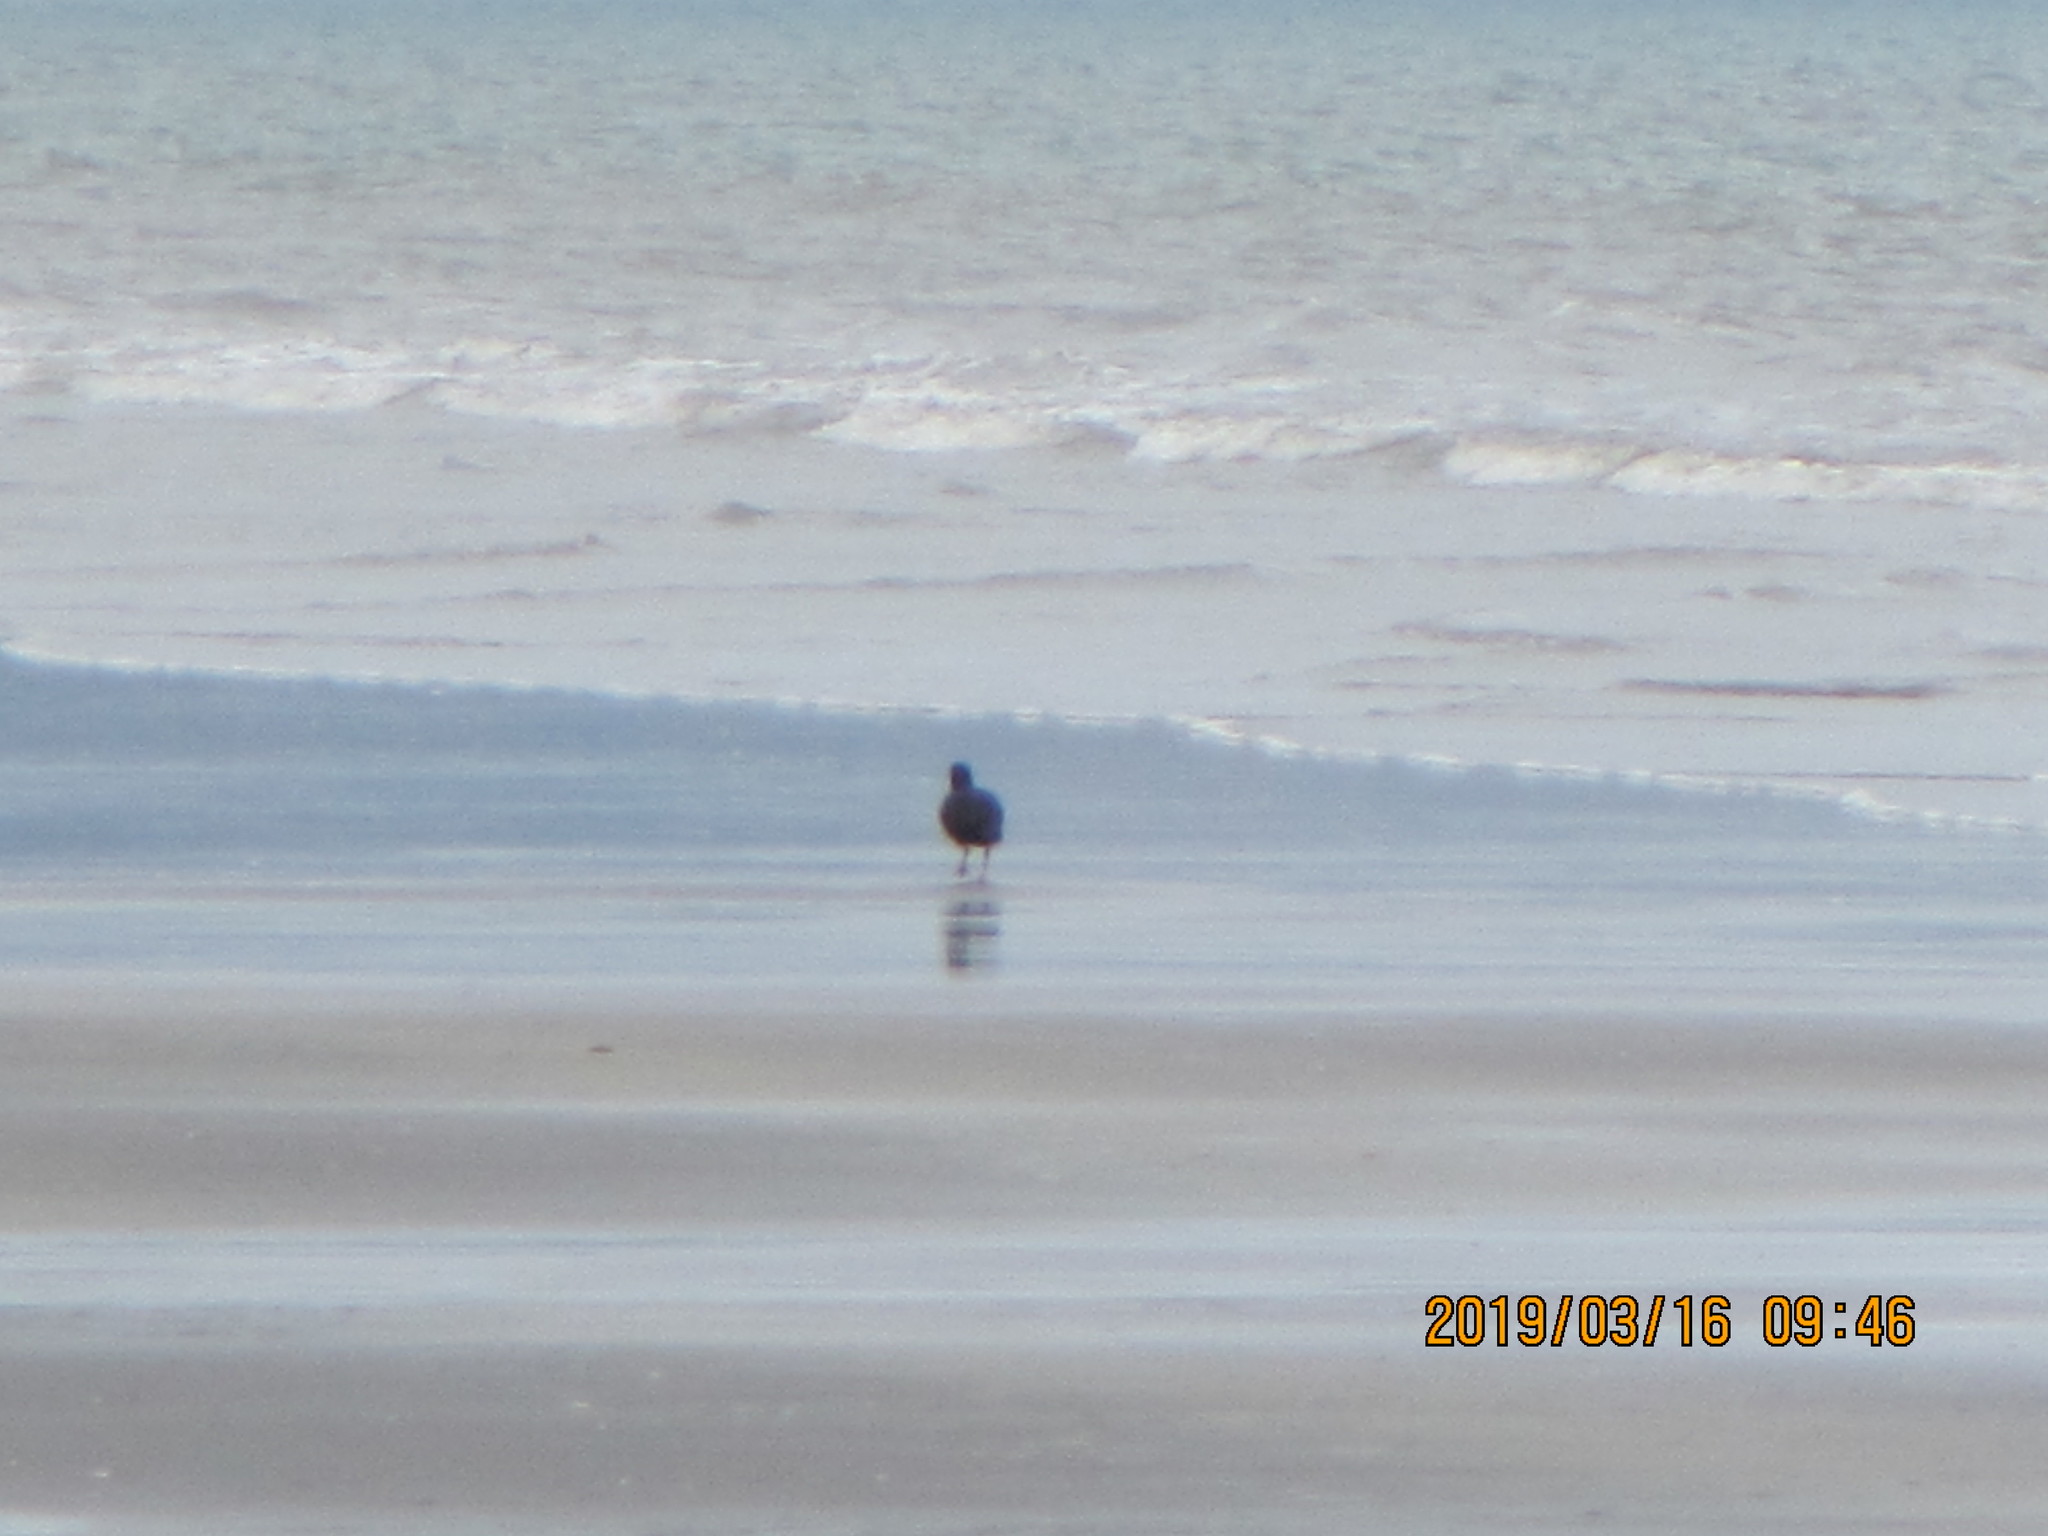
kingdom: Animalia
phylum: Chordata
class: Aves
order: Charadriiformes
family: Haematopodidae
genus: Haematopus
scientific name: Haematopus unicolor
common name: Variable oystercatcher
